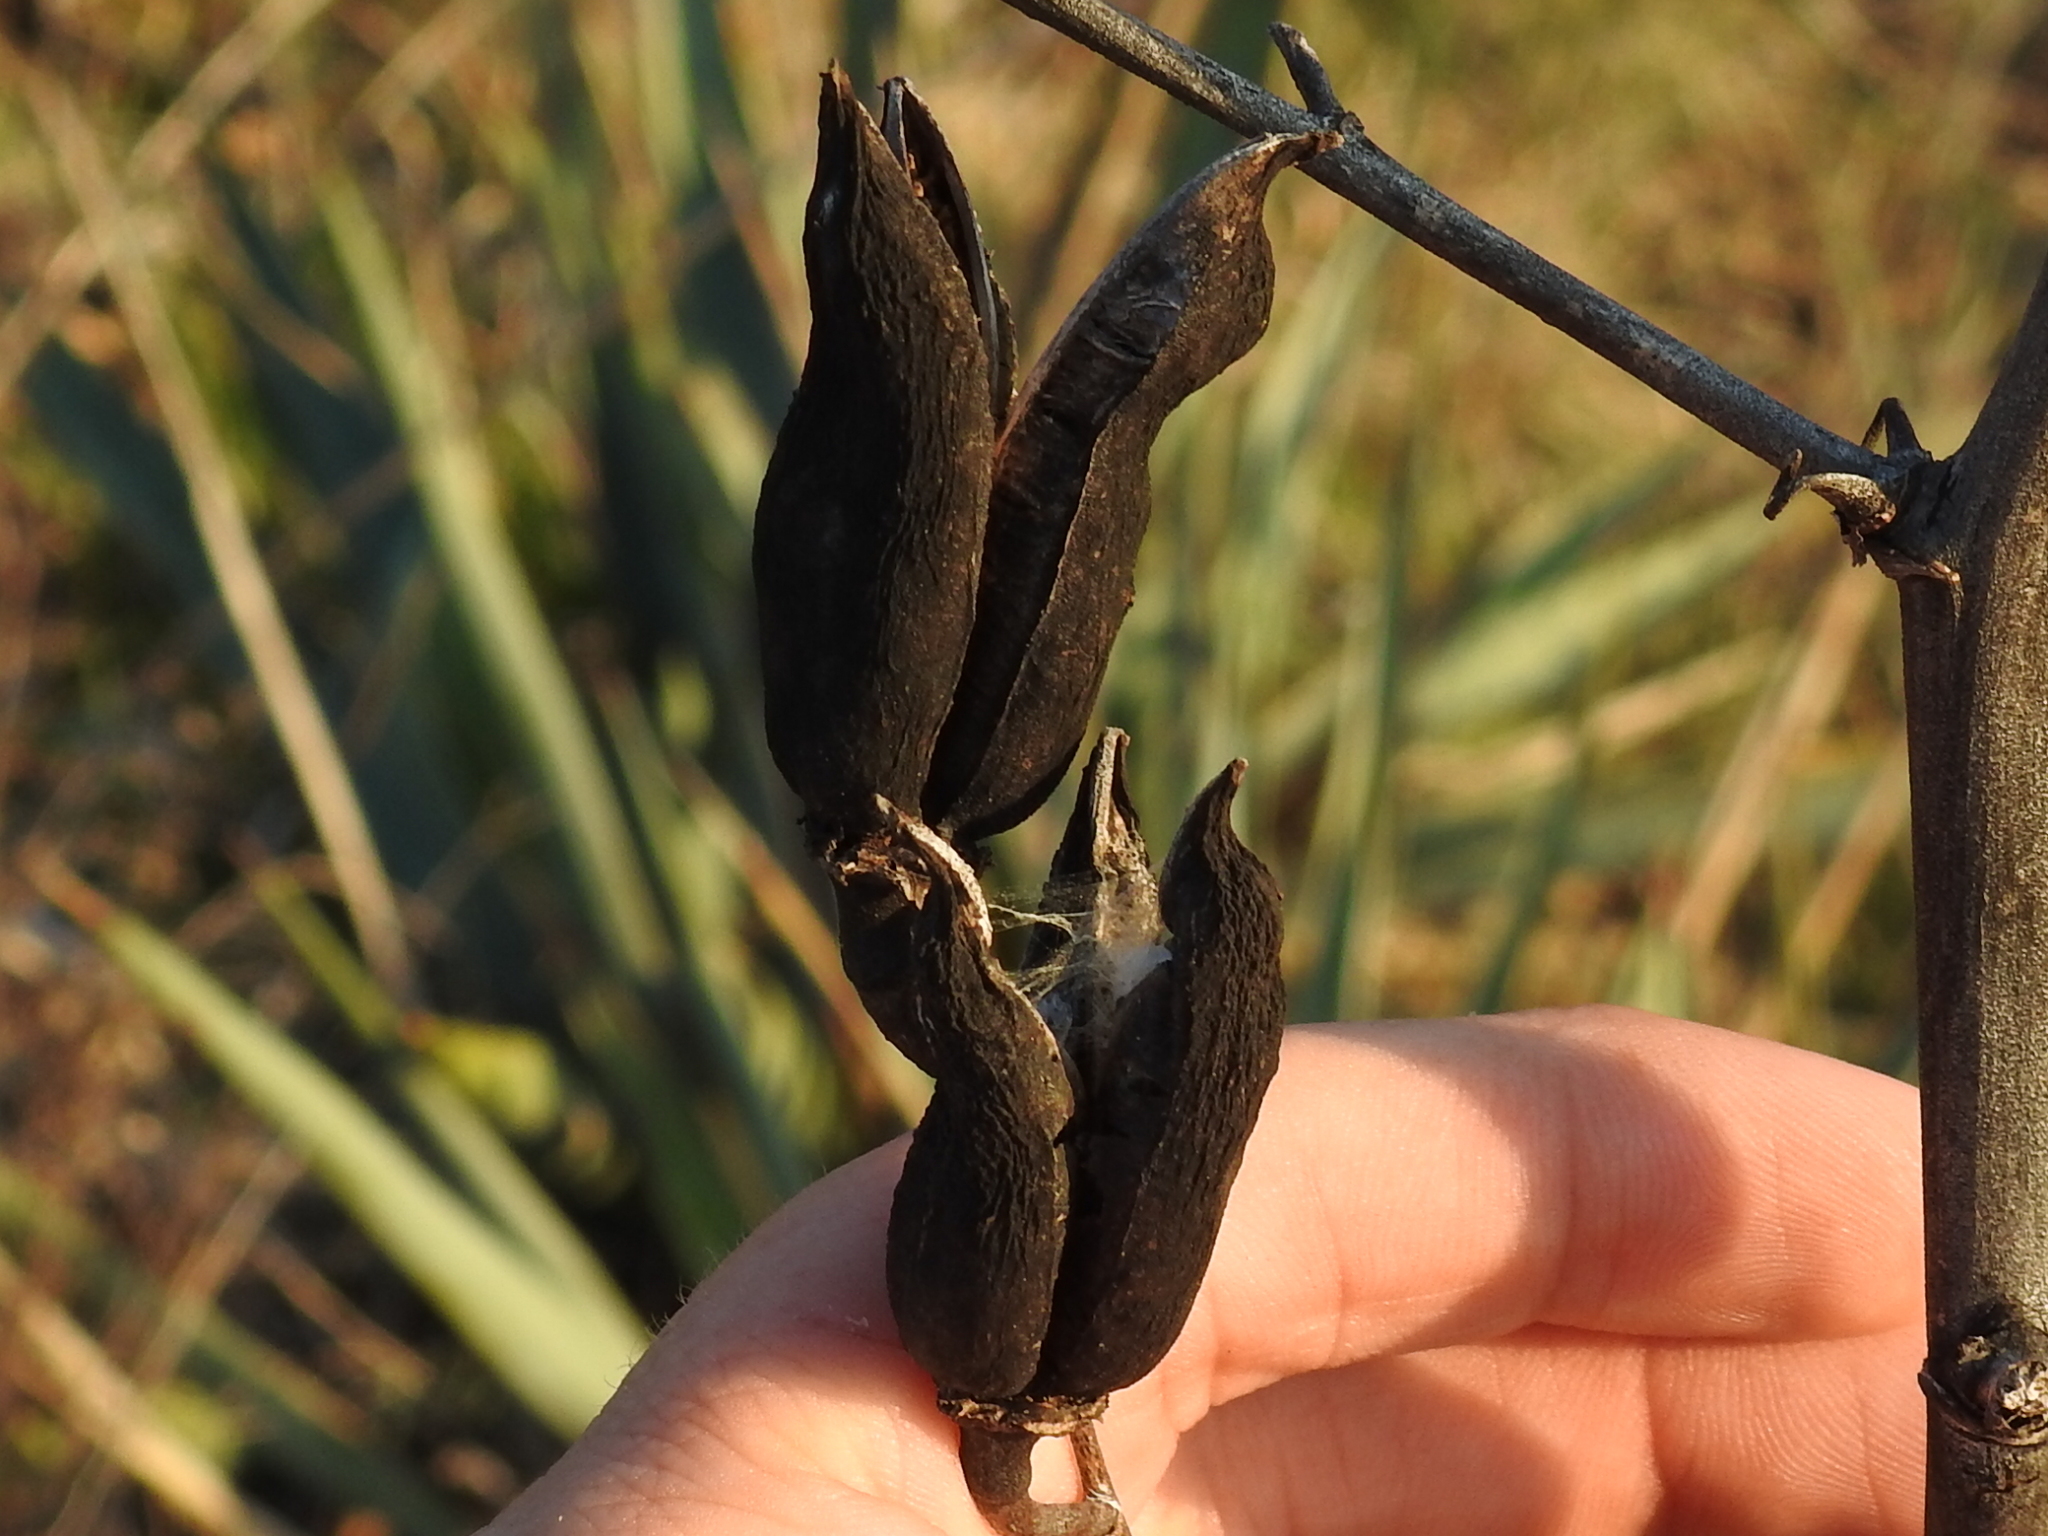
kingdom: Plantae
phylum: Tracheophyta
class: Liliopsida
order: Asparagales
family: Asparagaceae
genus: Yucca
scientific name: Yucca pallida
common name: Pale leaf yucca
